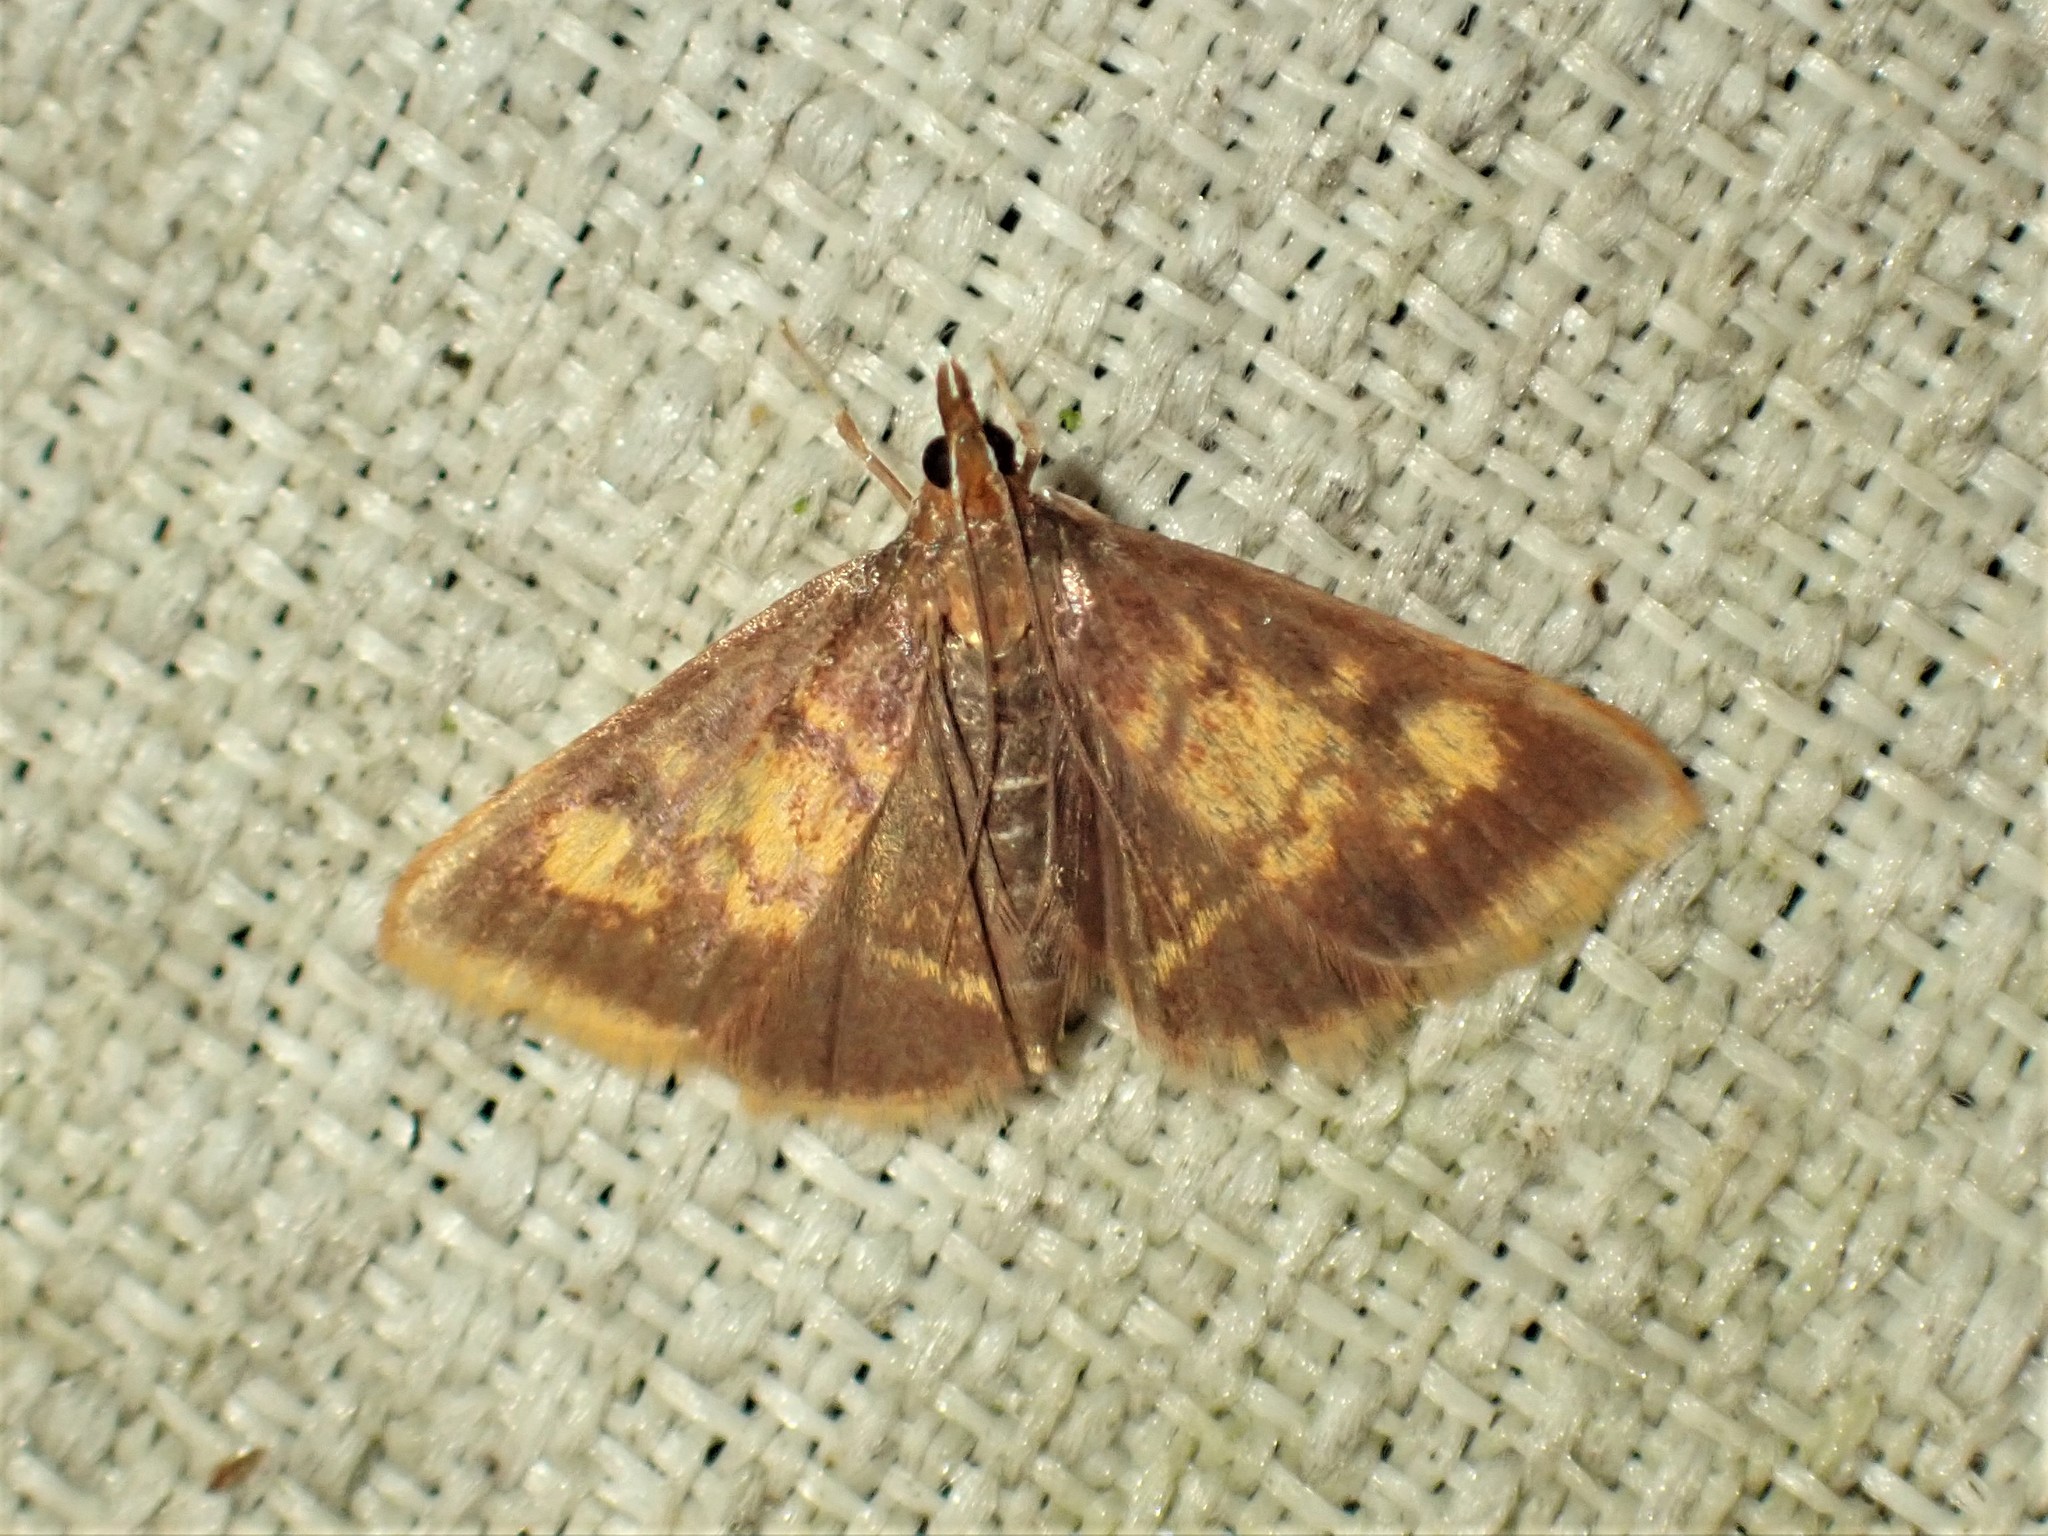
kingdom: Animalia
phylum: Arthropoda
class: Insecta
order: Lepidoptera
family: Crambidae
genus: Pyrausta
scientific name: Pyrausta acrionalis
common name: Mint-loving pyrausta moth
